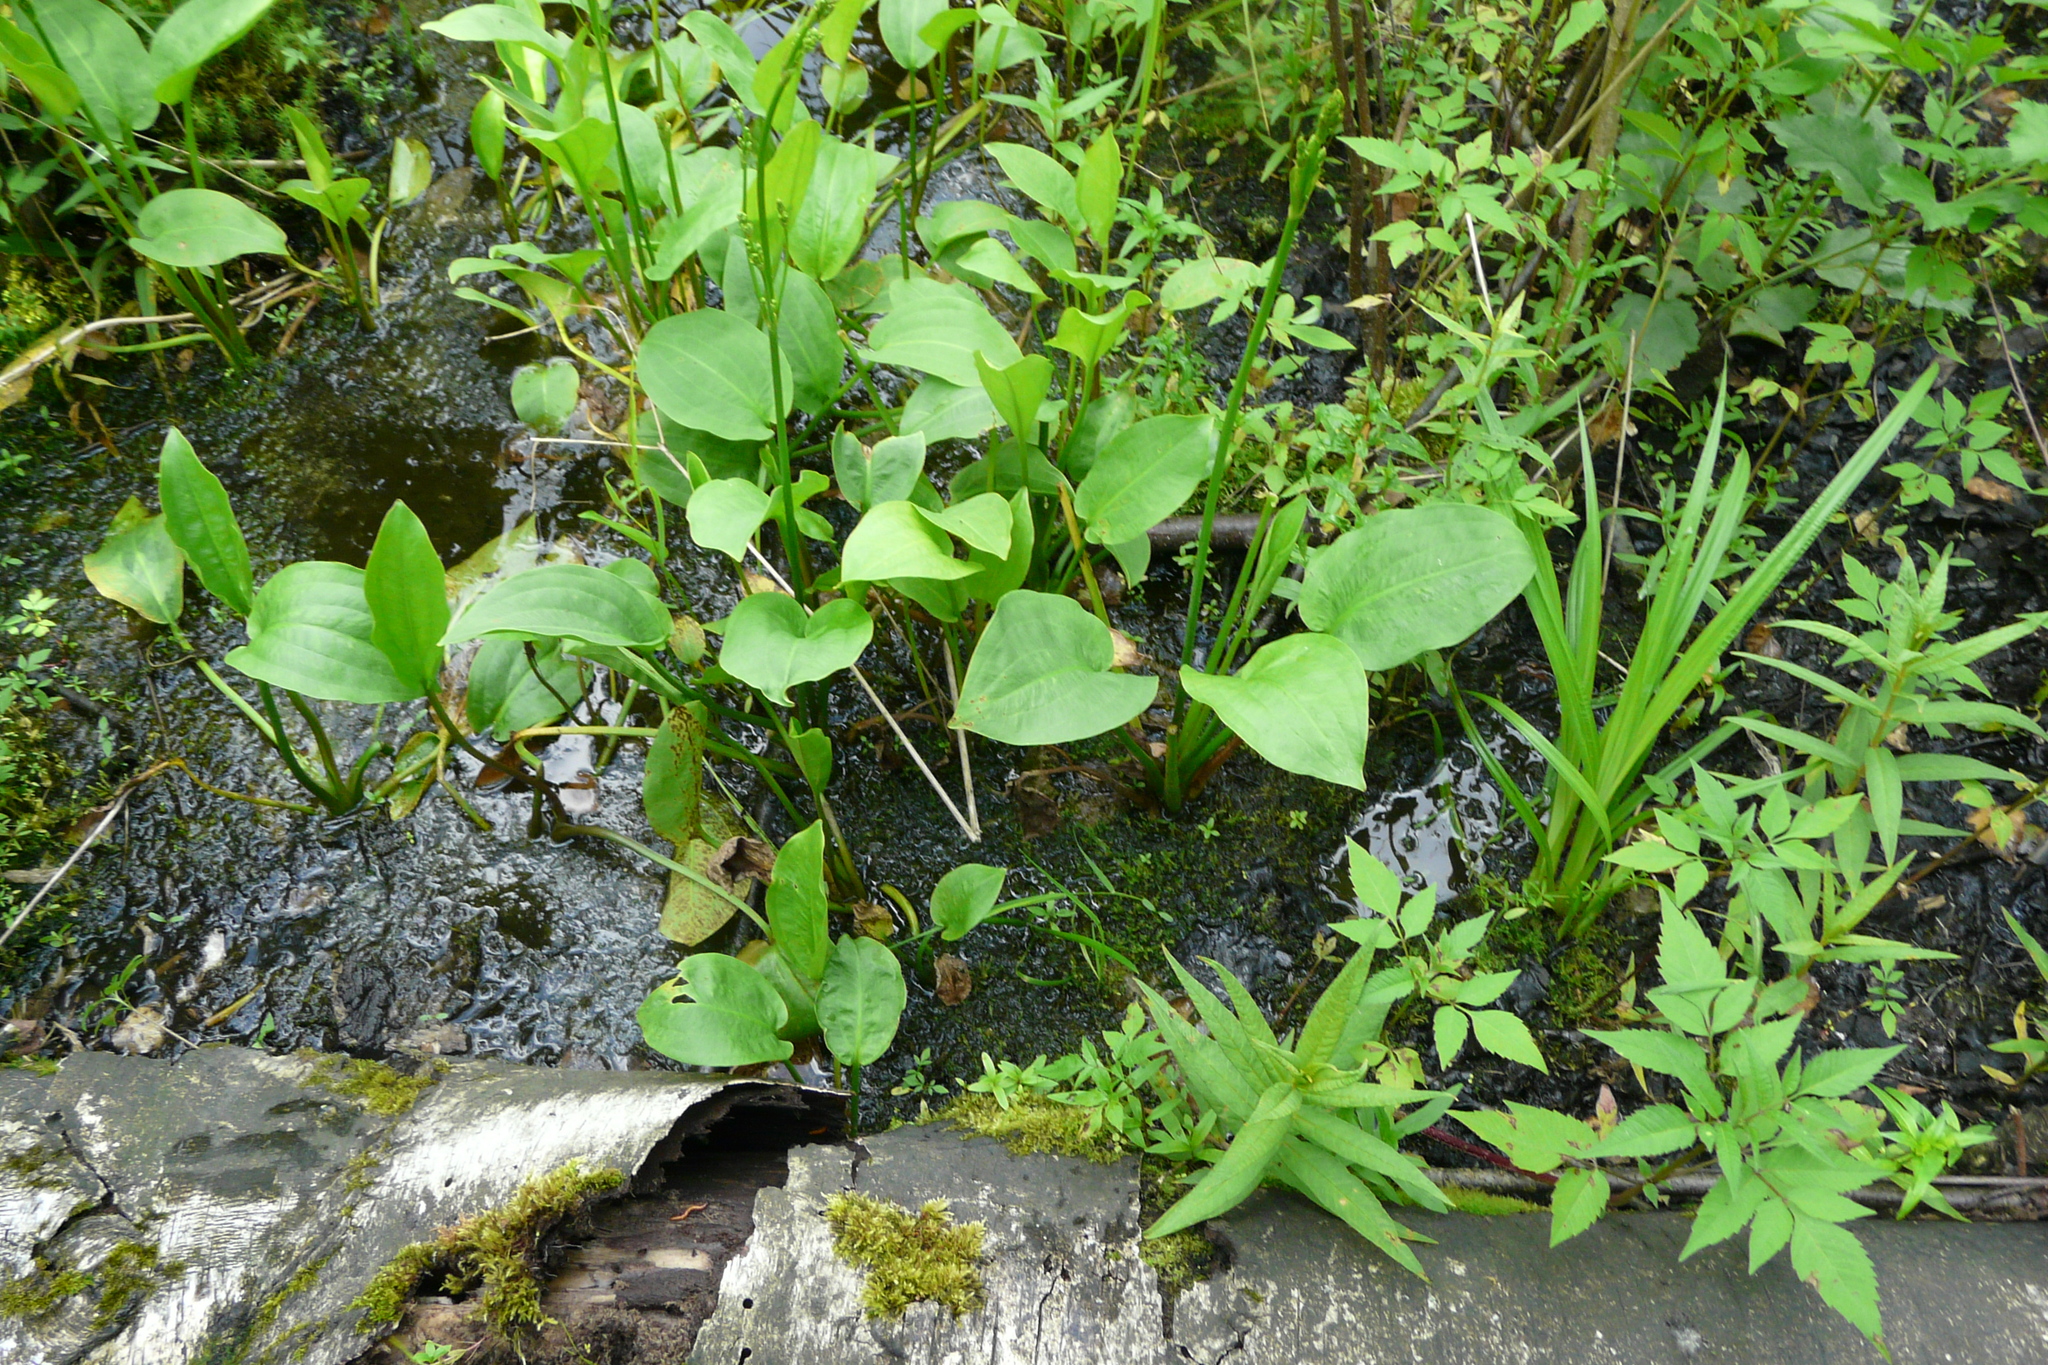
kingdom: Plantae
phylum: Tracheophyta
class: Liliopsida
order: Alismatales
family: Alismataceae
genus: Alisma
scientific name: Alisma plantago-aquatica
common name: Water-plantain
